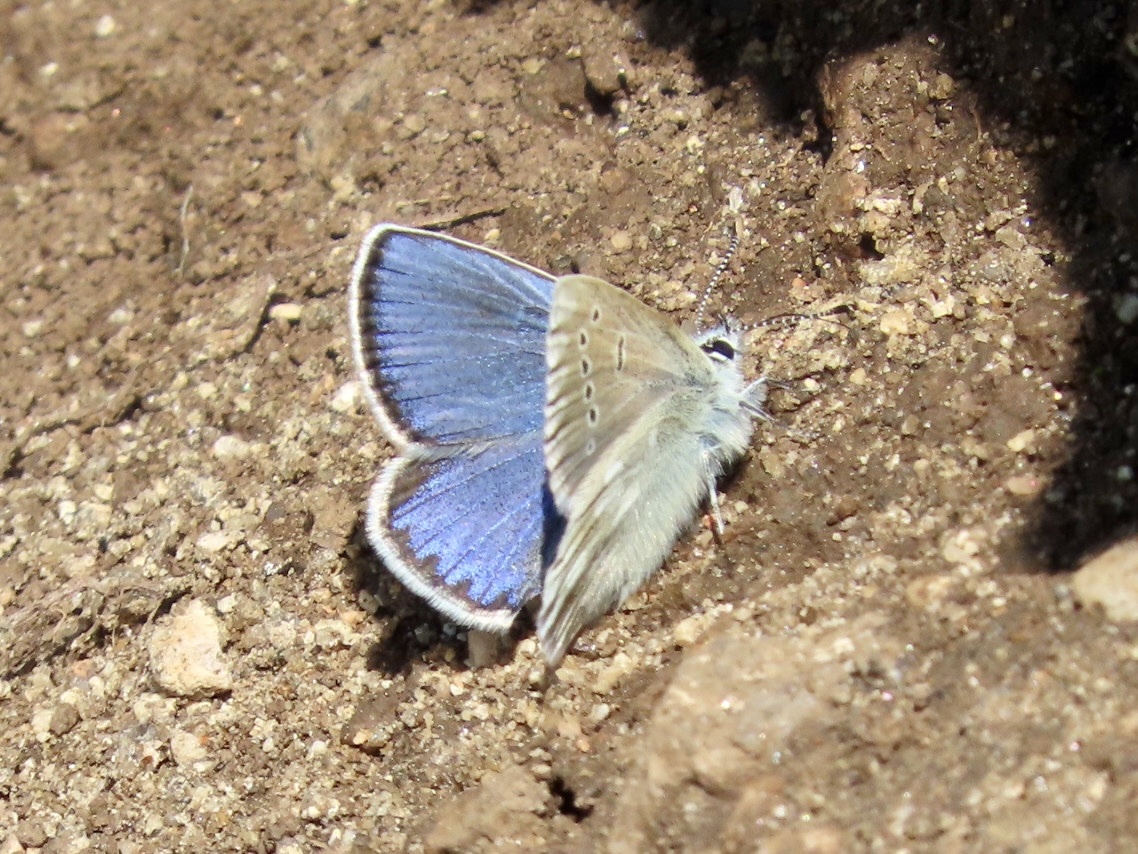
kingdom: Animalia
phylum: Arthropoda
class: Insecta
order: Lepidoptera
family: Lycaenidae
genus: Albulina
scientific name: Albulina orbitulus
